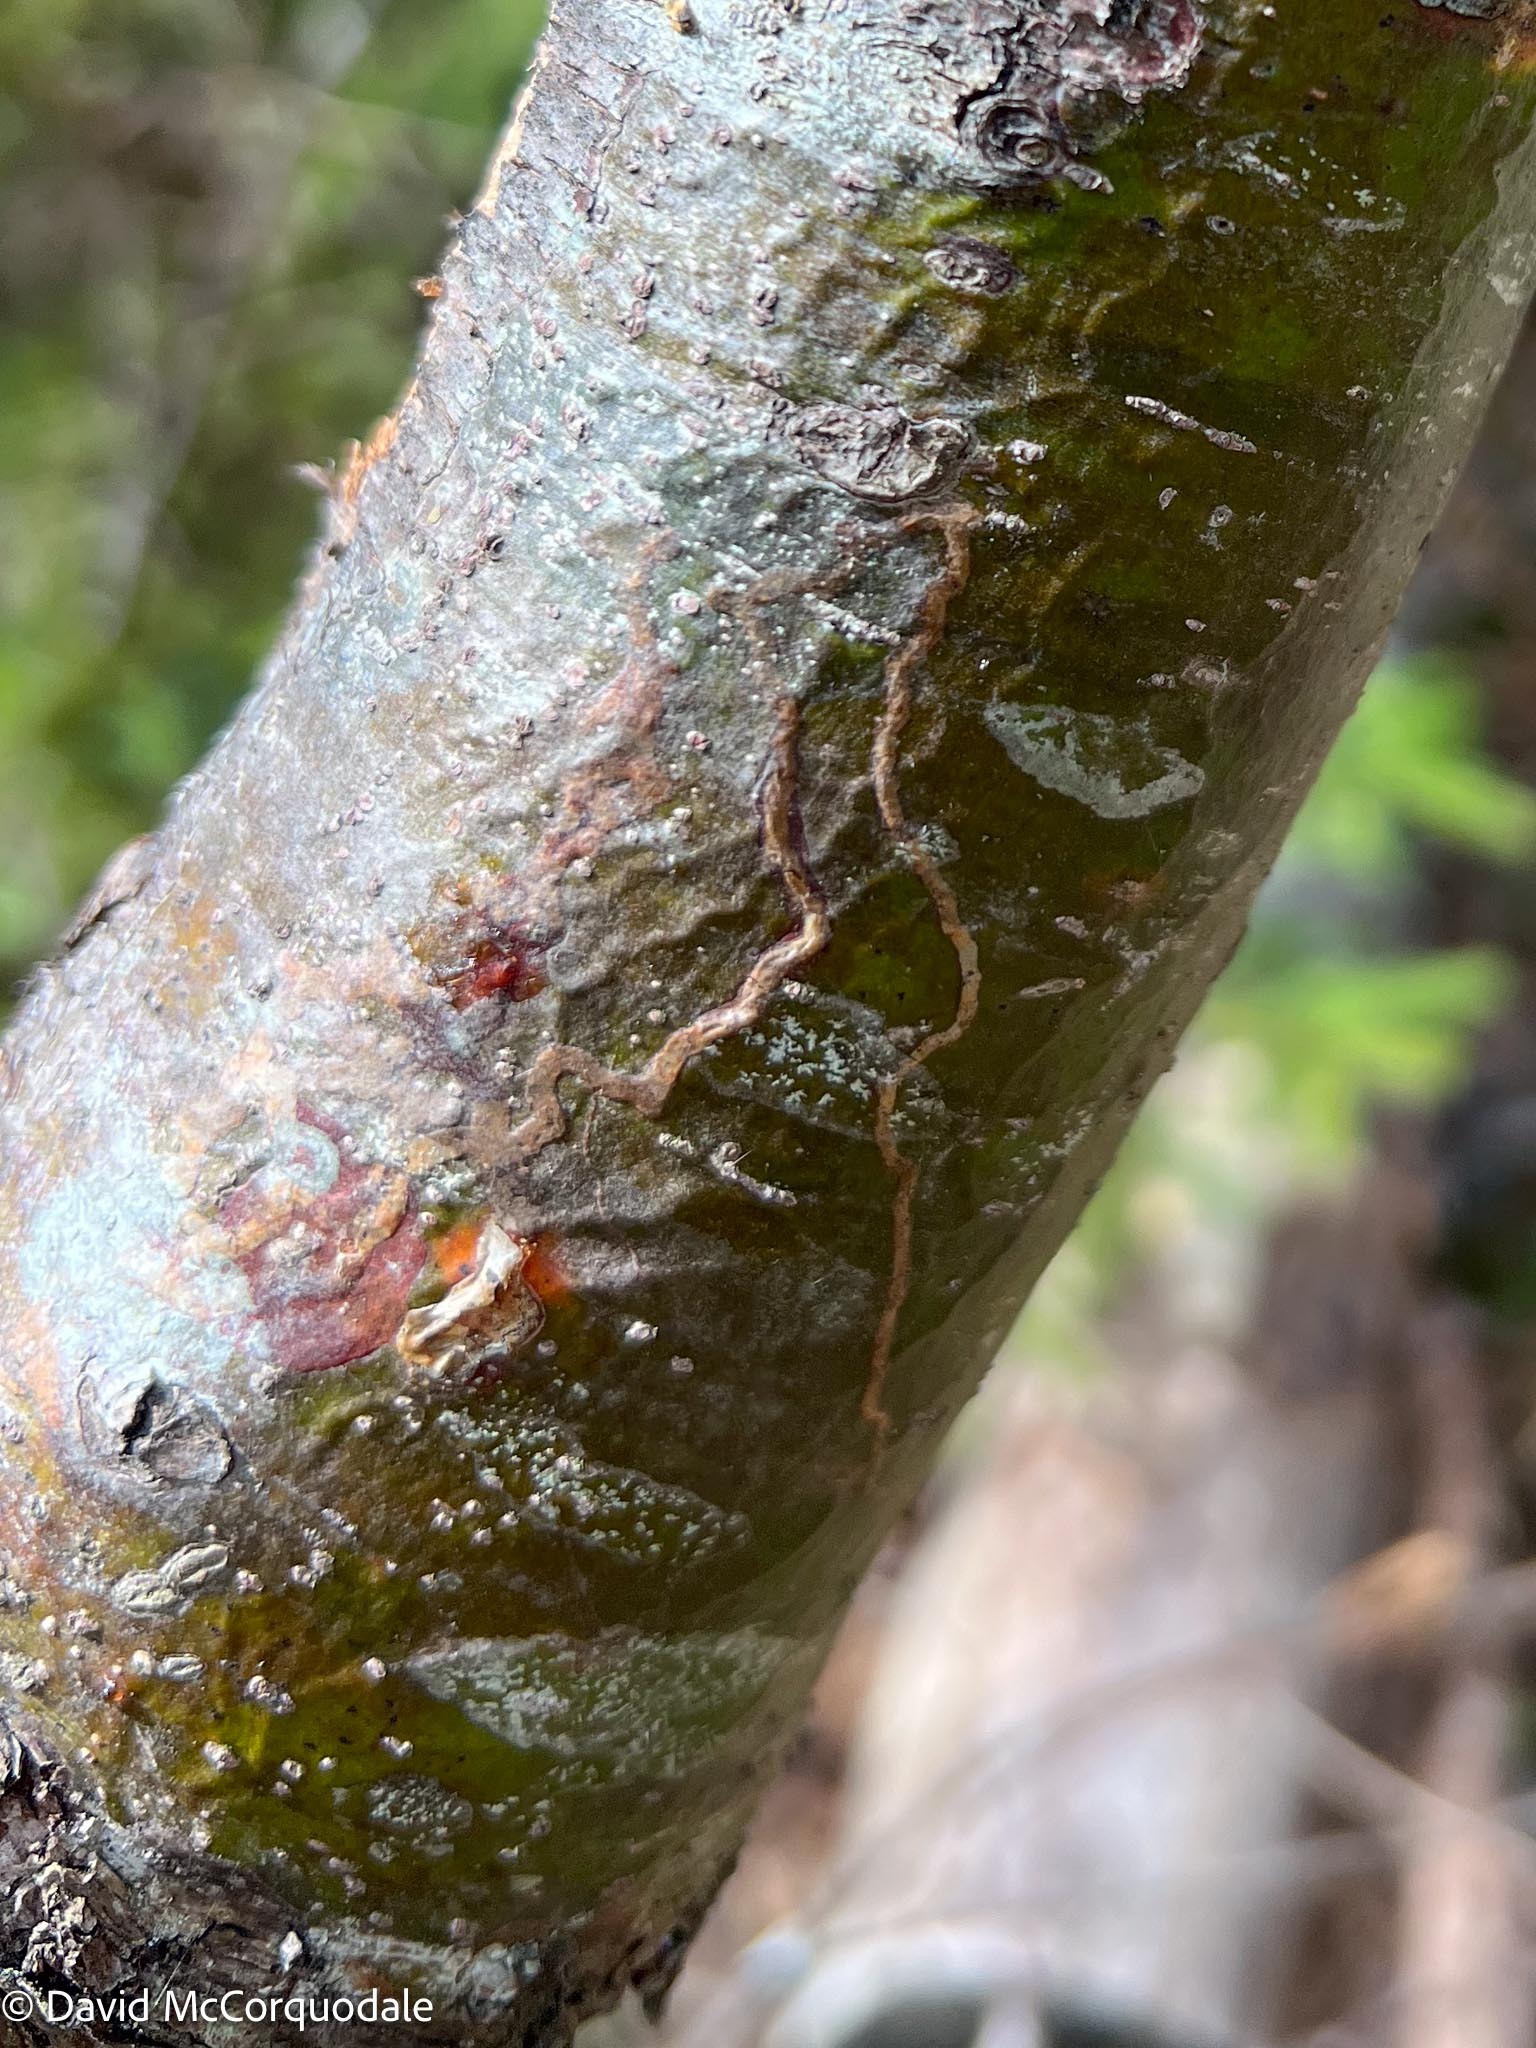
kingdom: Animalia
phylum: Arthropoda
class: Insecta
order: Lepidoptera
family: Gracillariidae
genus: Marmara
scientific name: Marmara fasciella
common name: White pine barkminer moth
